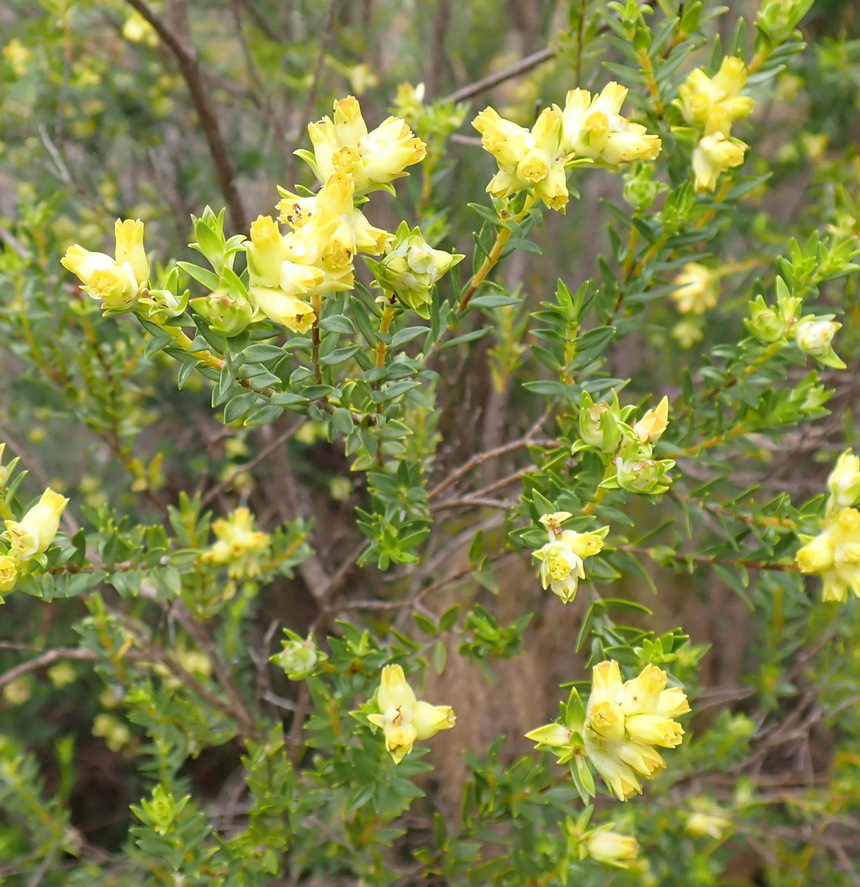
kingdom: Plantae
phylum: Tracheophyta
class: Magnoliopsida
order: Myrtales
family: Penaeaceae
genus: Penaea
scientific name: Penaea cneorum
